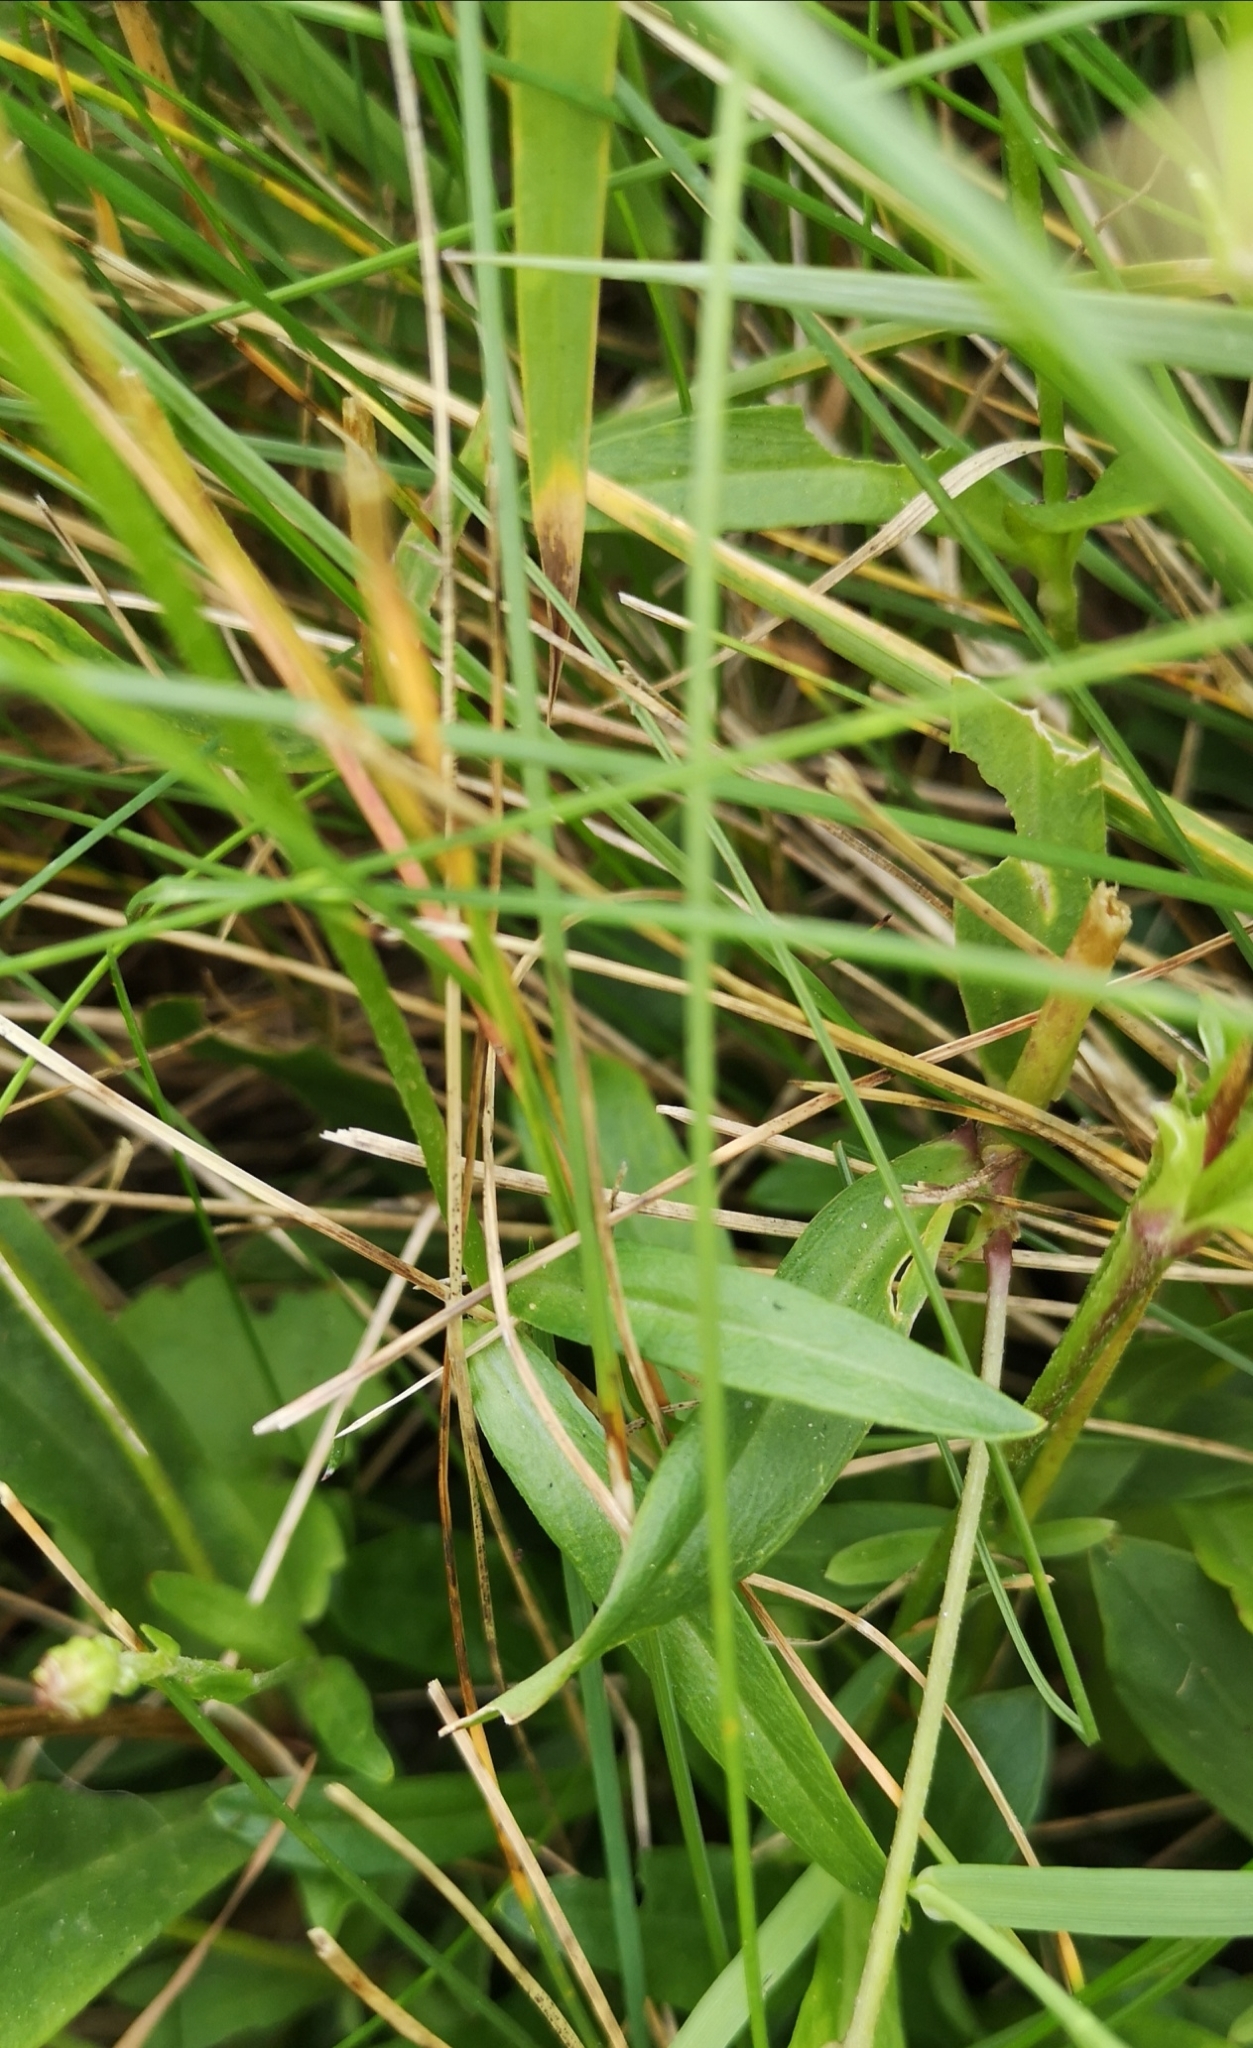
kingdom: Plantae
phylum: Tracheophyta
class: Magnoliopsida
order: Caryophyllales
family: Caryophyllaceae
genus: Silene
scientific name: Silene flos-cuculi
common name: Ragged-robin
